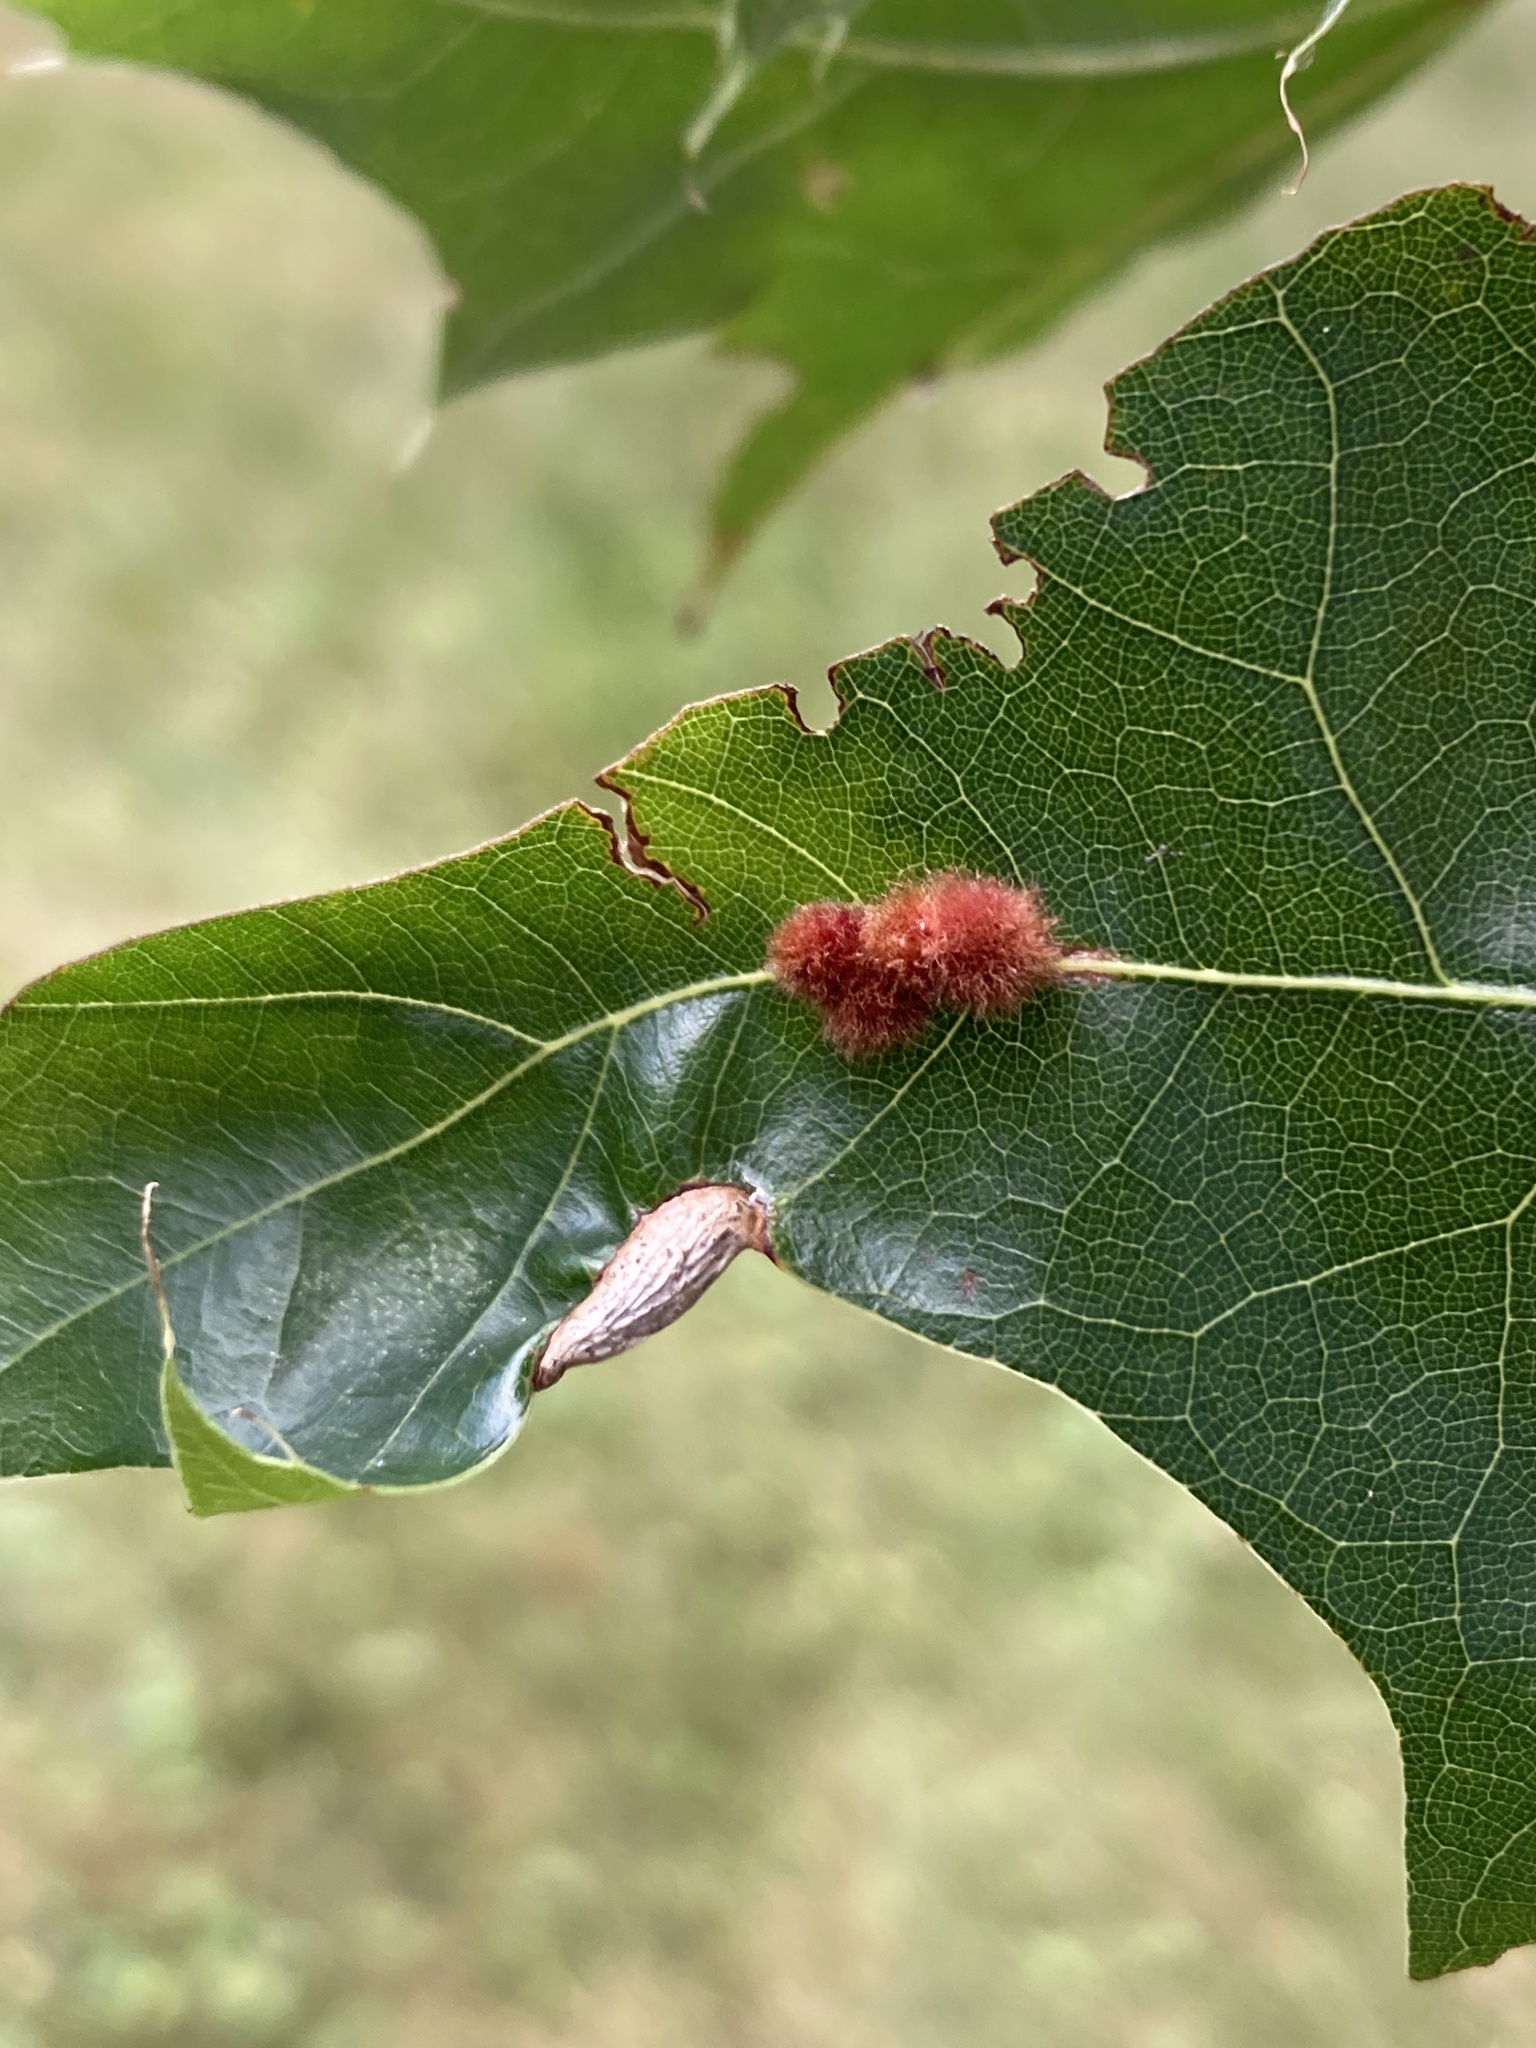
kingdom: Animalia
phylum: Arthropoda
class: Insecta
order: Hymenoptera
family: Cynipidae
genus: Callirhytis
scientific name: Callirhytis
